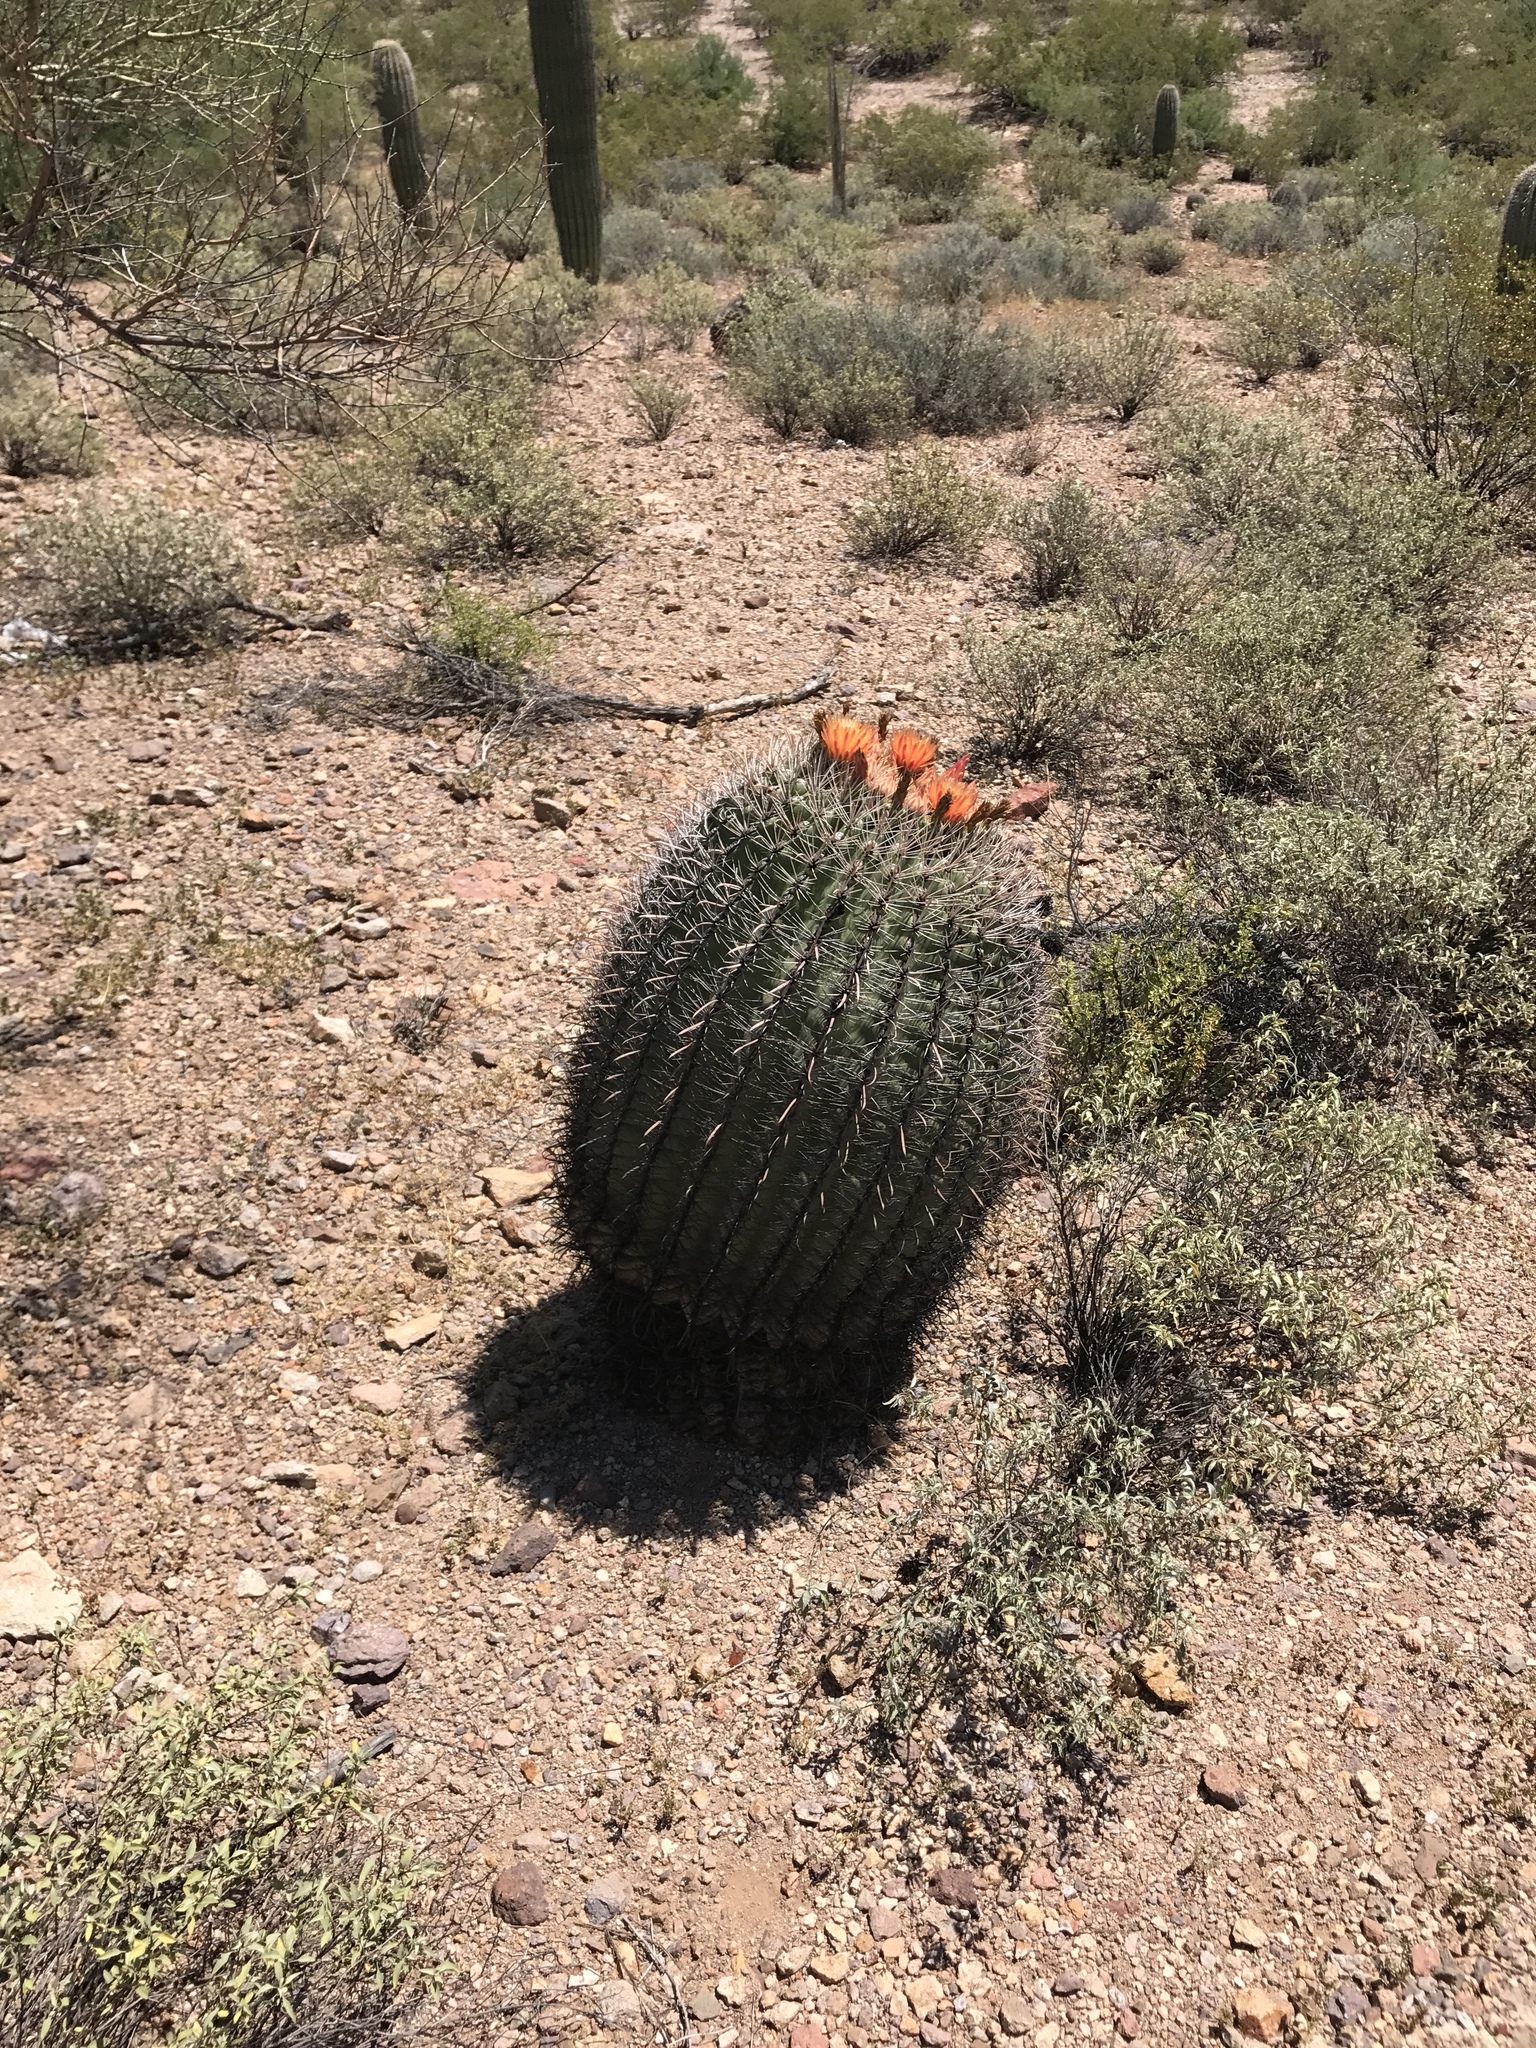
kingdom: Plantae
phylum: Tracheophyta
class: Magnoliopsida
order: Caryophyllales
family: Cactaceae
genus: Ferocactus
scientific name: Ferocactus wislizeni
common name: Candy barrel cactus
